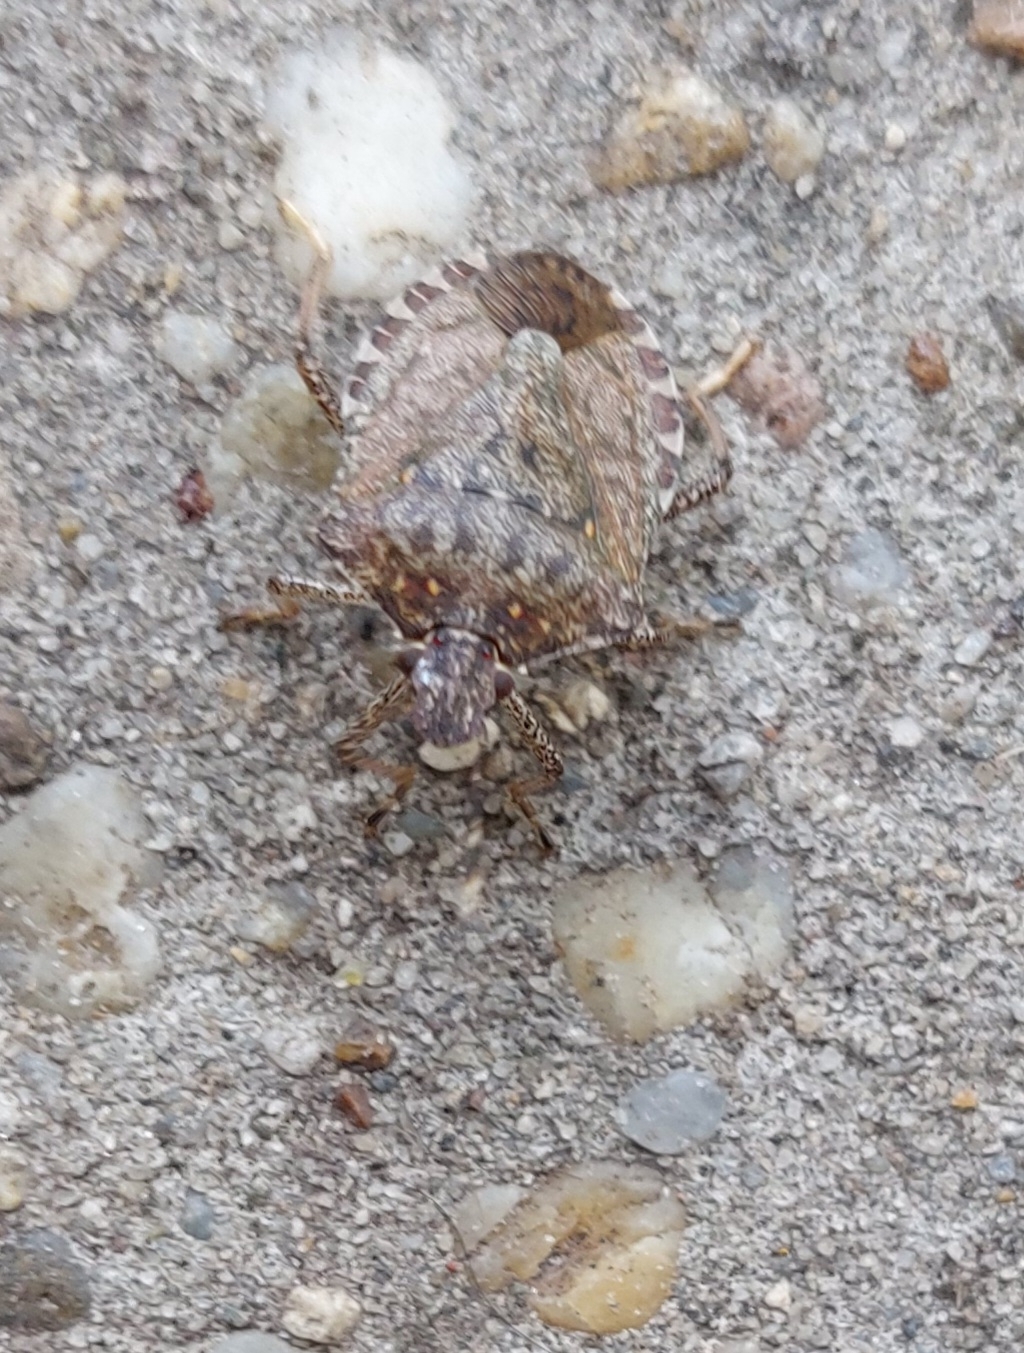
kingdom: Animalia
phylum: Arthropoda
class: Insecta
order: Hemiptera
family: Pentatomidae
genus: Halyomorpha
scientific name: Halyomorpha halys
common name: Brown marmorated stink bug
